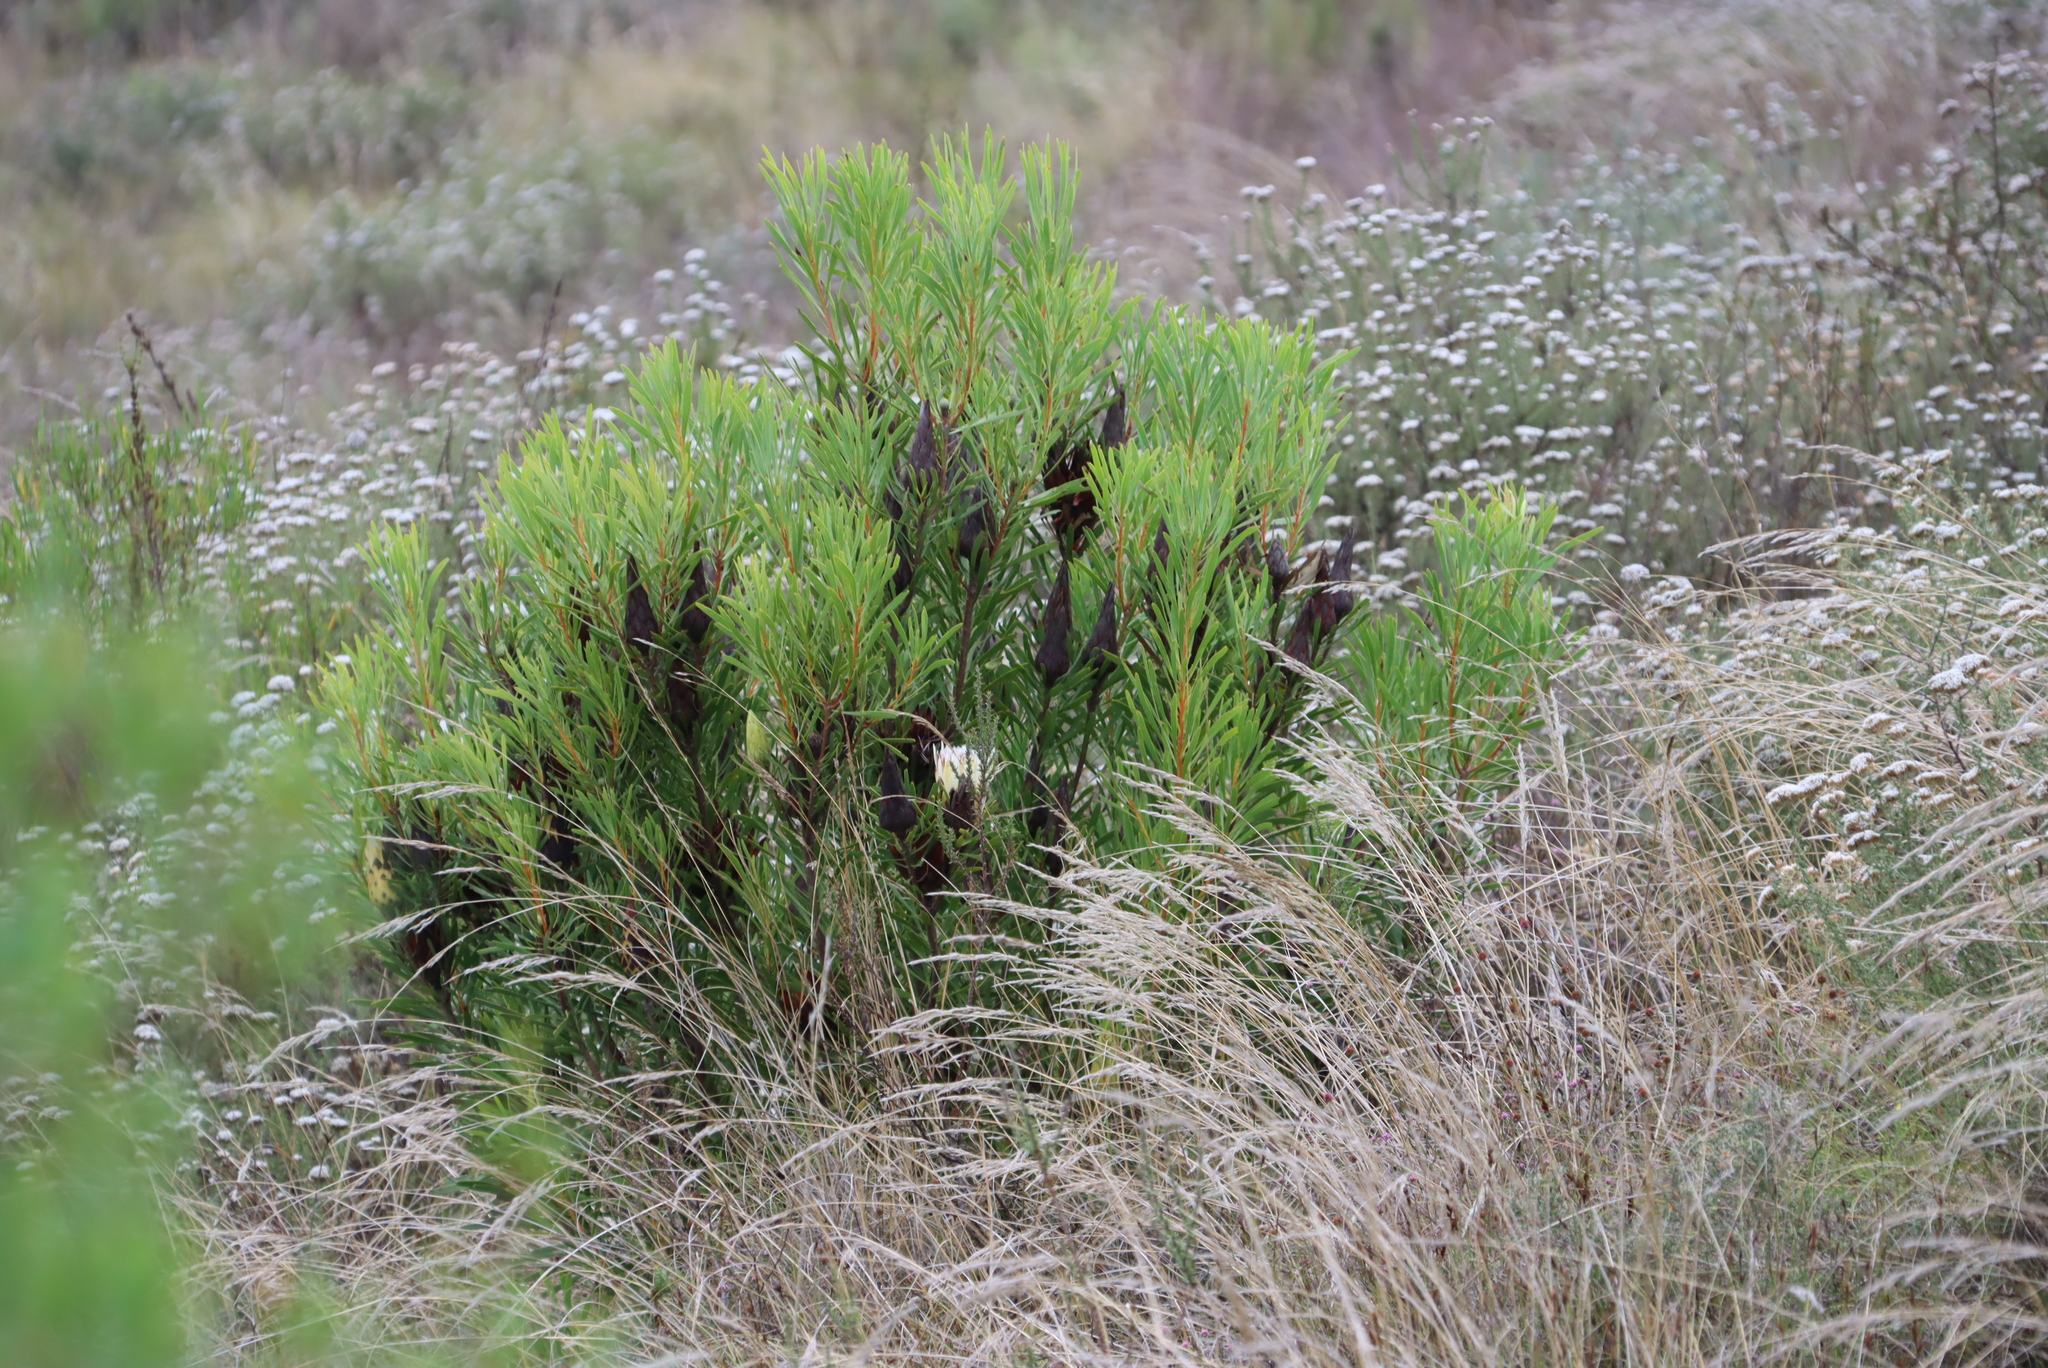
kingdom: Plantae
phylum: Tracheophyta
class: Magnoliopsida
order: Proteales
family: Proteaceae
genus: Protea
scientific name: Protea repens
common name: Sugarbush
